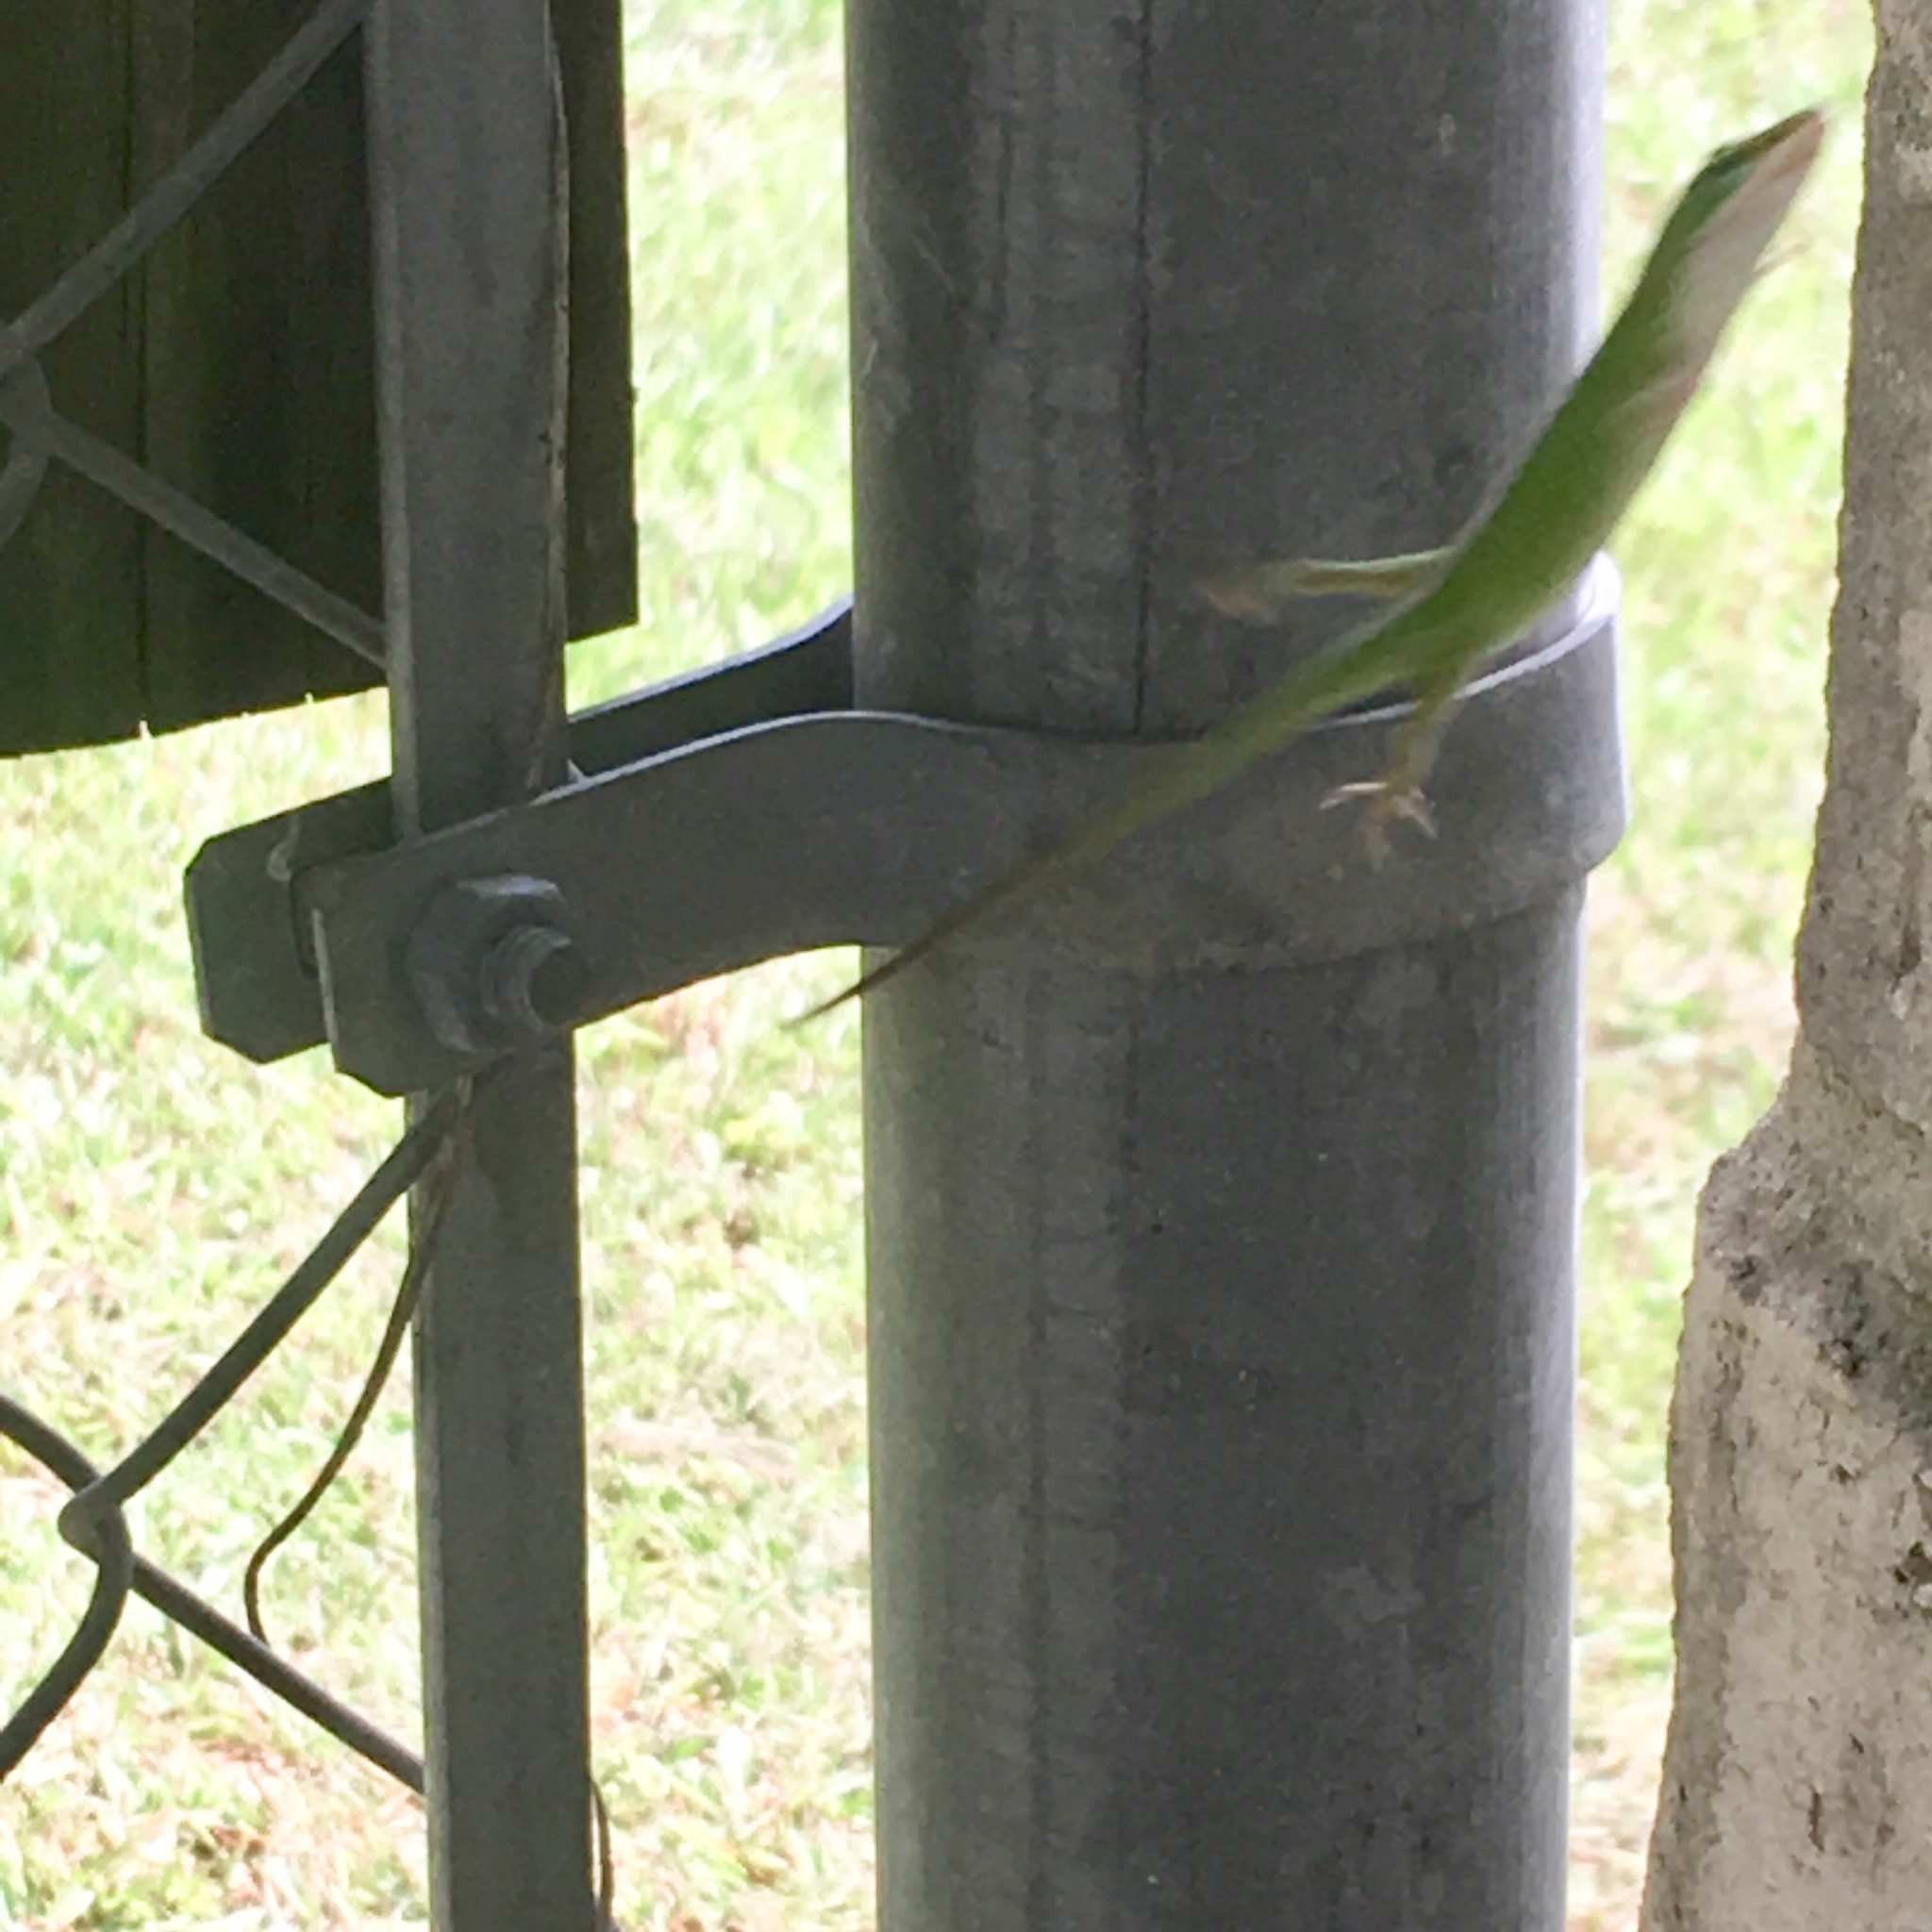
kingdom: Animalia
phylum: Chordata
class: Squamata
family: Dactyloidae
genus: Anolis
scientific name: Anolis carolinensis
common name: Green anole
